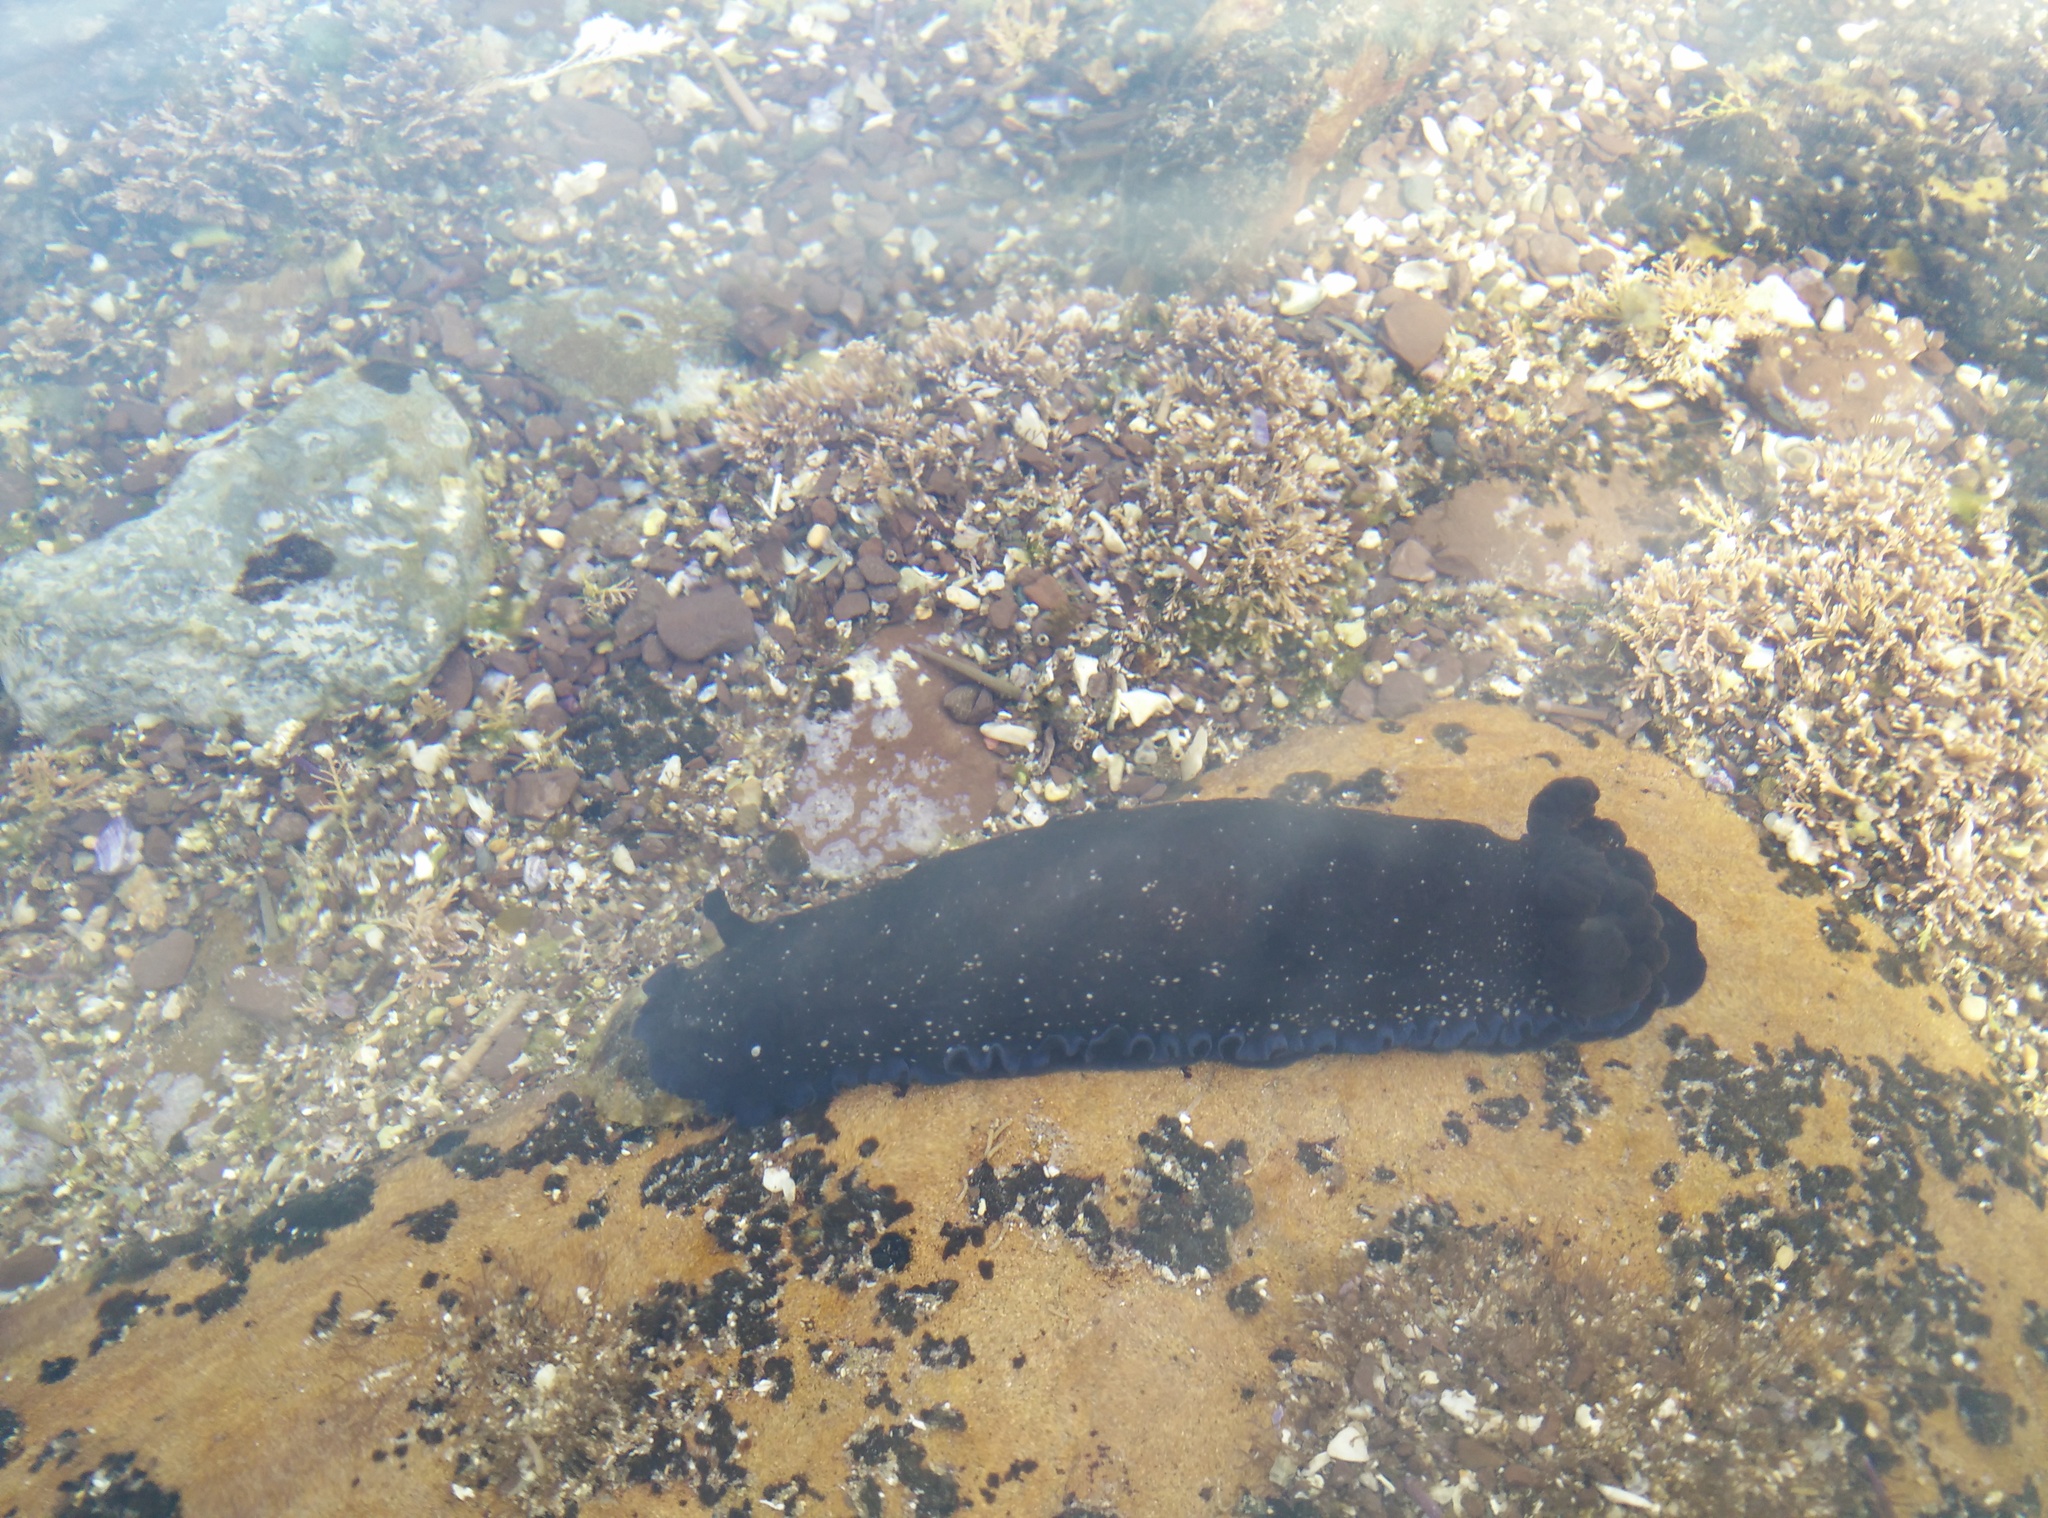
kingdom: Animalia
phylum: Mollusca
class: Gastropoda
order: Nudibranchia
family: Dendrodorididae
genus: Dendrodoris
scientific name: Dendrodoris nigra
